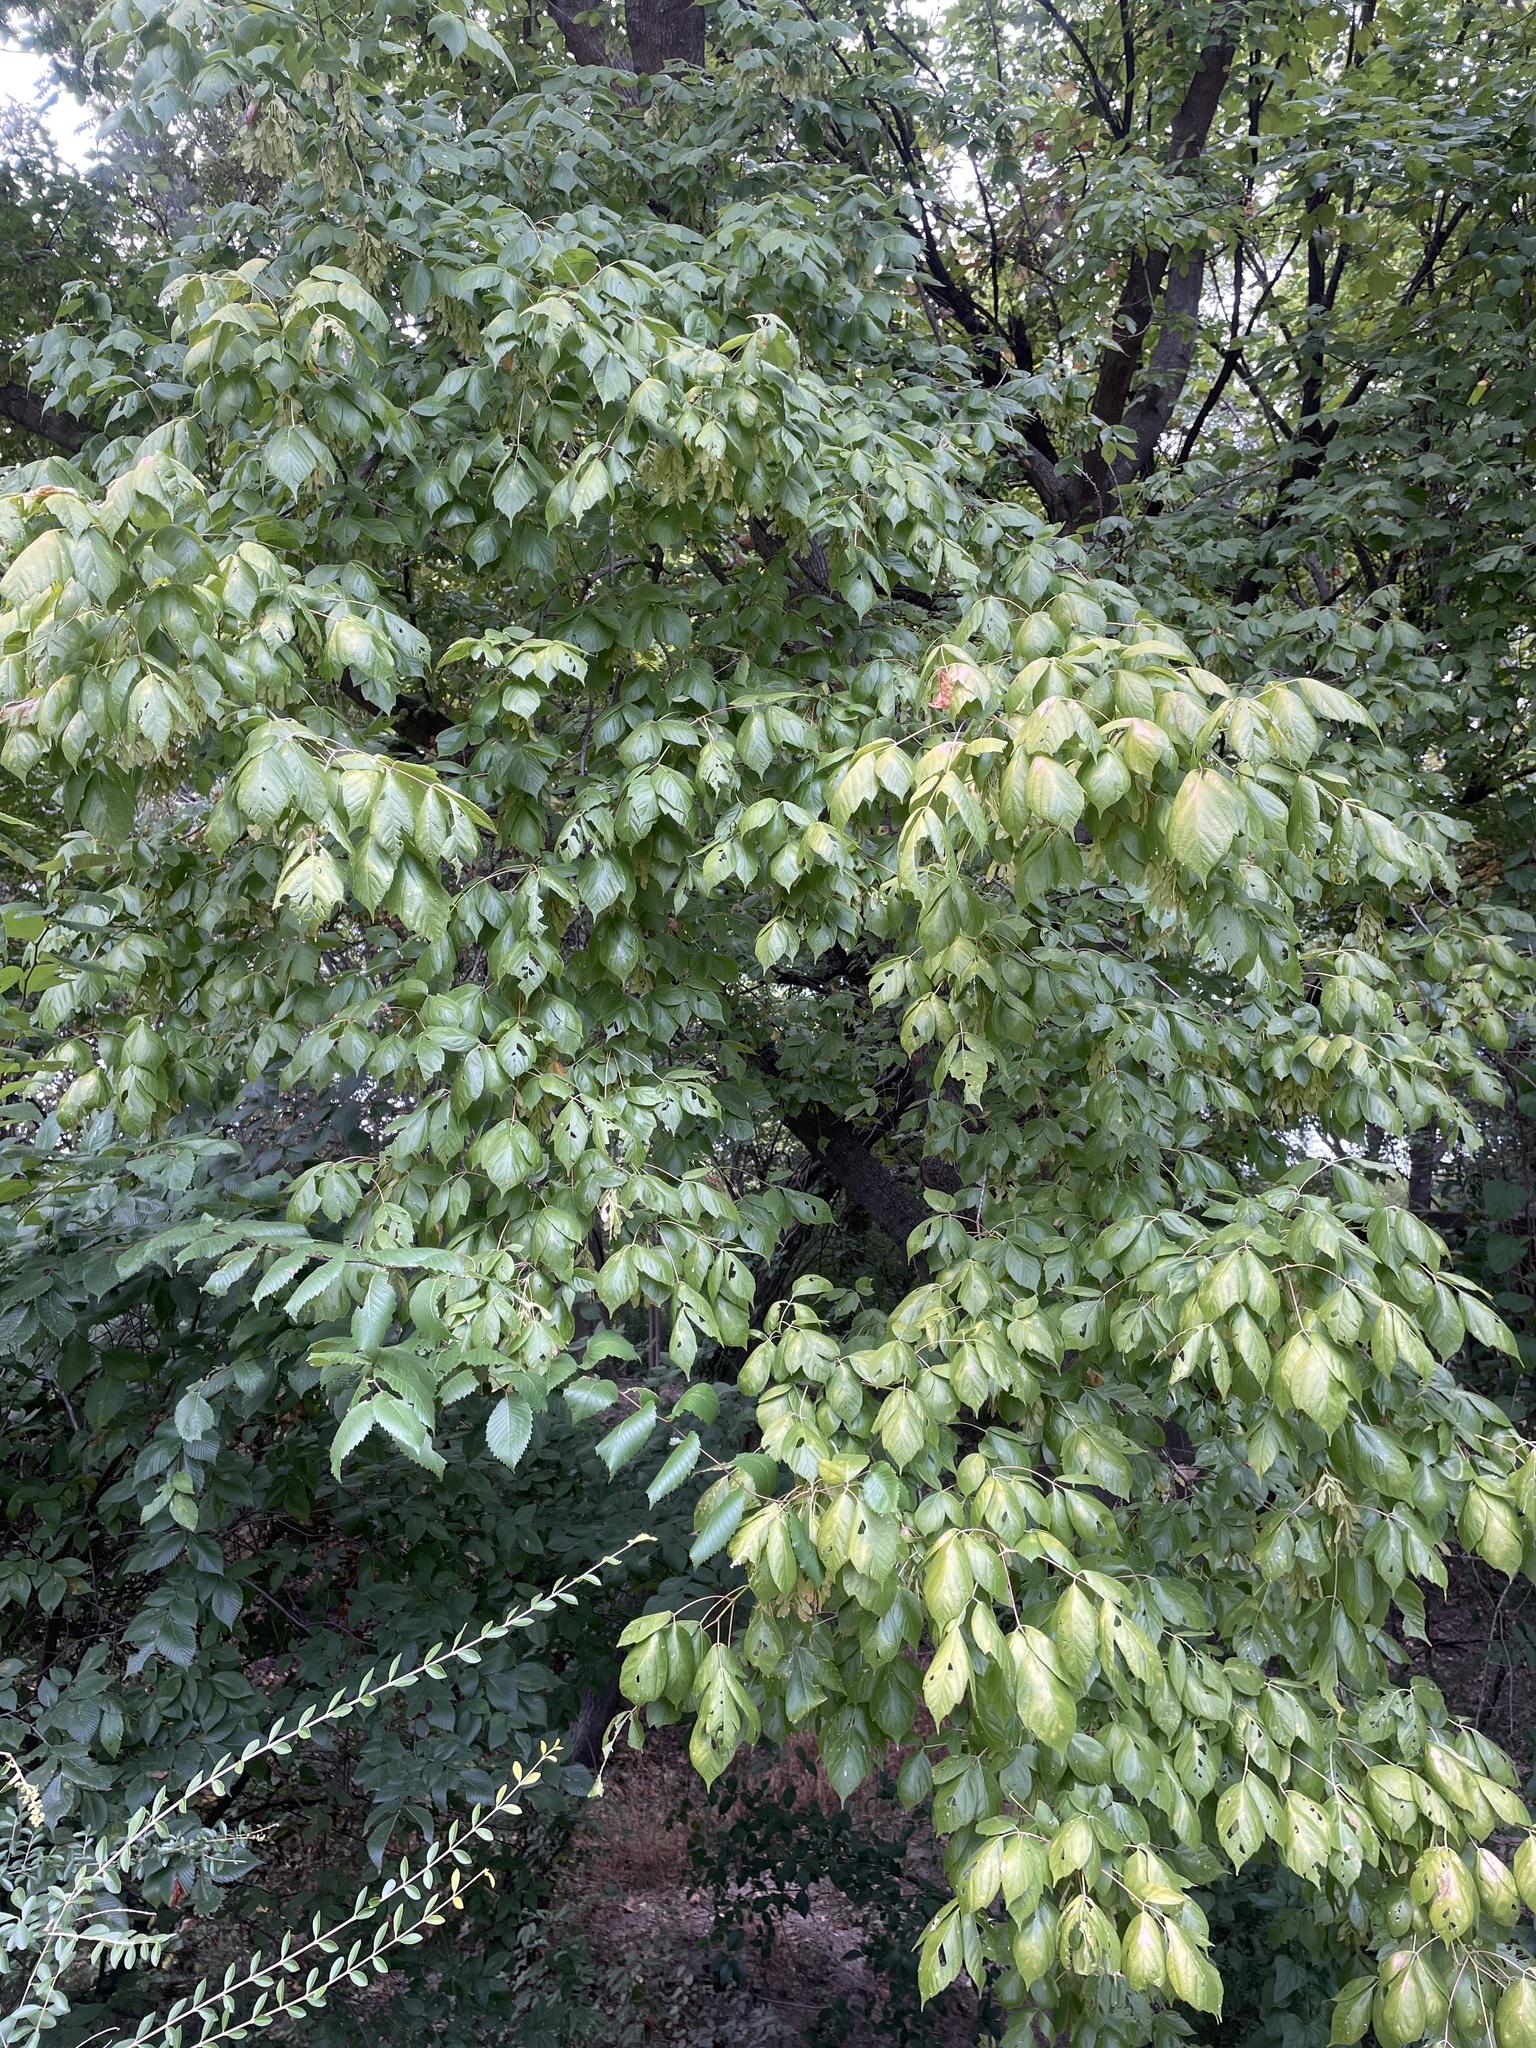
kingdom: Plantae
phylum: Tracheophyta
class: Magnoliopsida
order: Sapindales
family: Sapindaceae
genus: Acer
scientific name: Acer negundo
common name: Ashleaf maple
